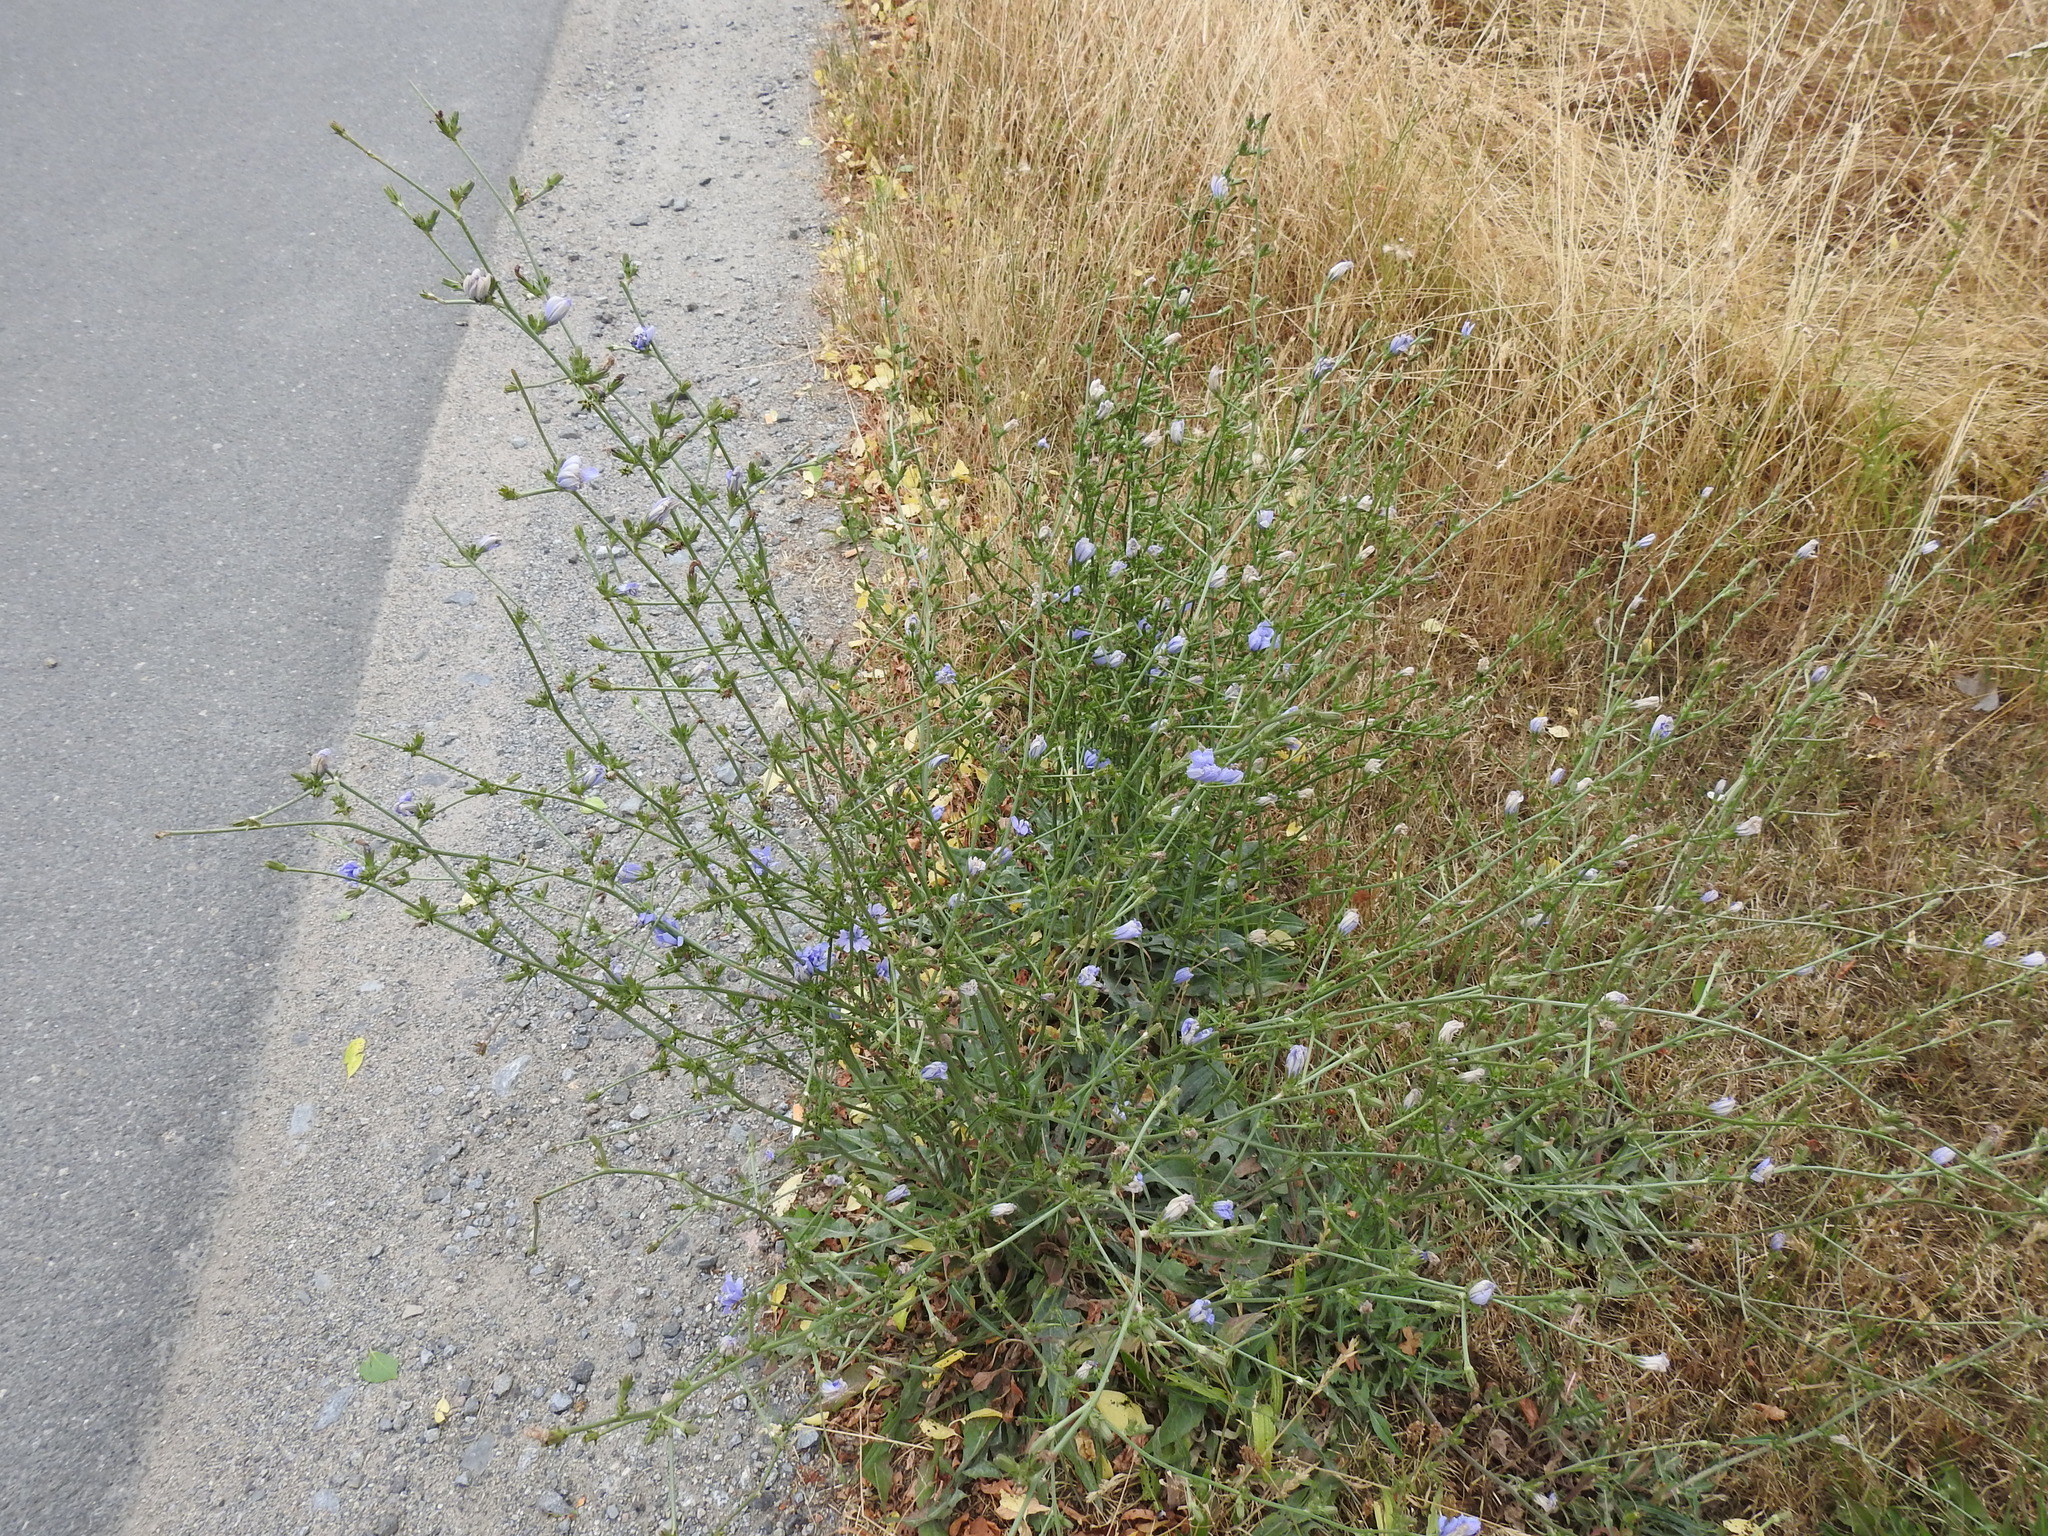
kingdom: Plantae
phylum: Tracheophyta
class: Magnoliopsida
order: Asterales
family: Asteraceae
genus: Cichorium
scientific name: Cichorium intybus
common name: Chicory
